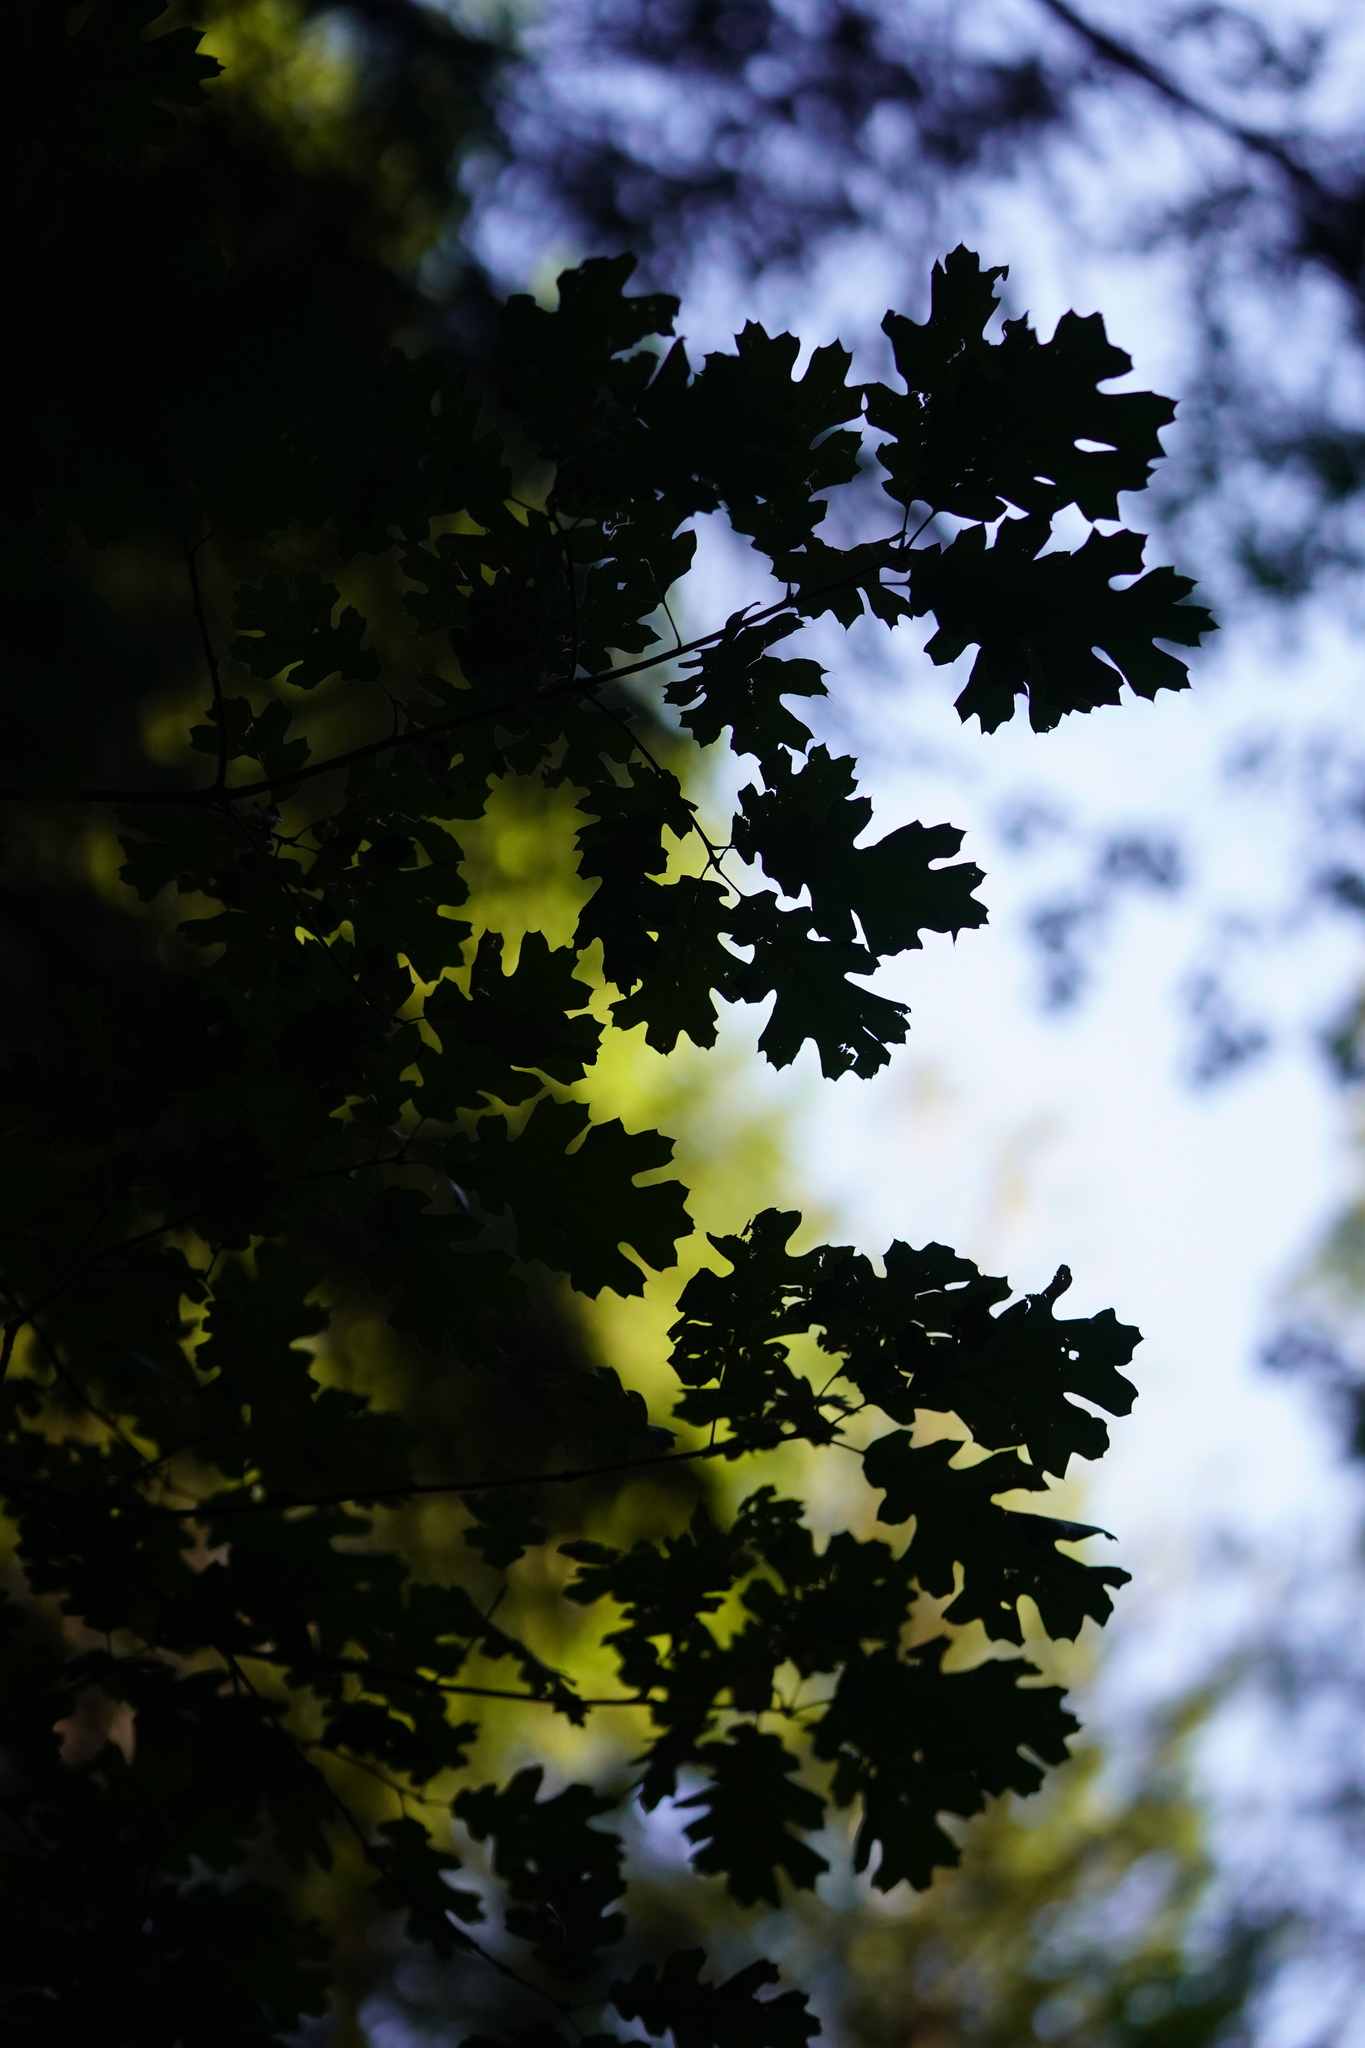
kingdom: Plantae
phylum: Tracheophyta
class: Magnoliopsida
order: Fagales
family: Fagaceae
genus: Quercus
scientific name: Quercus kelloggii
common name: California black oak
